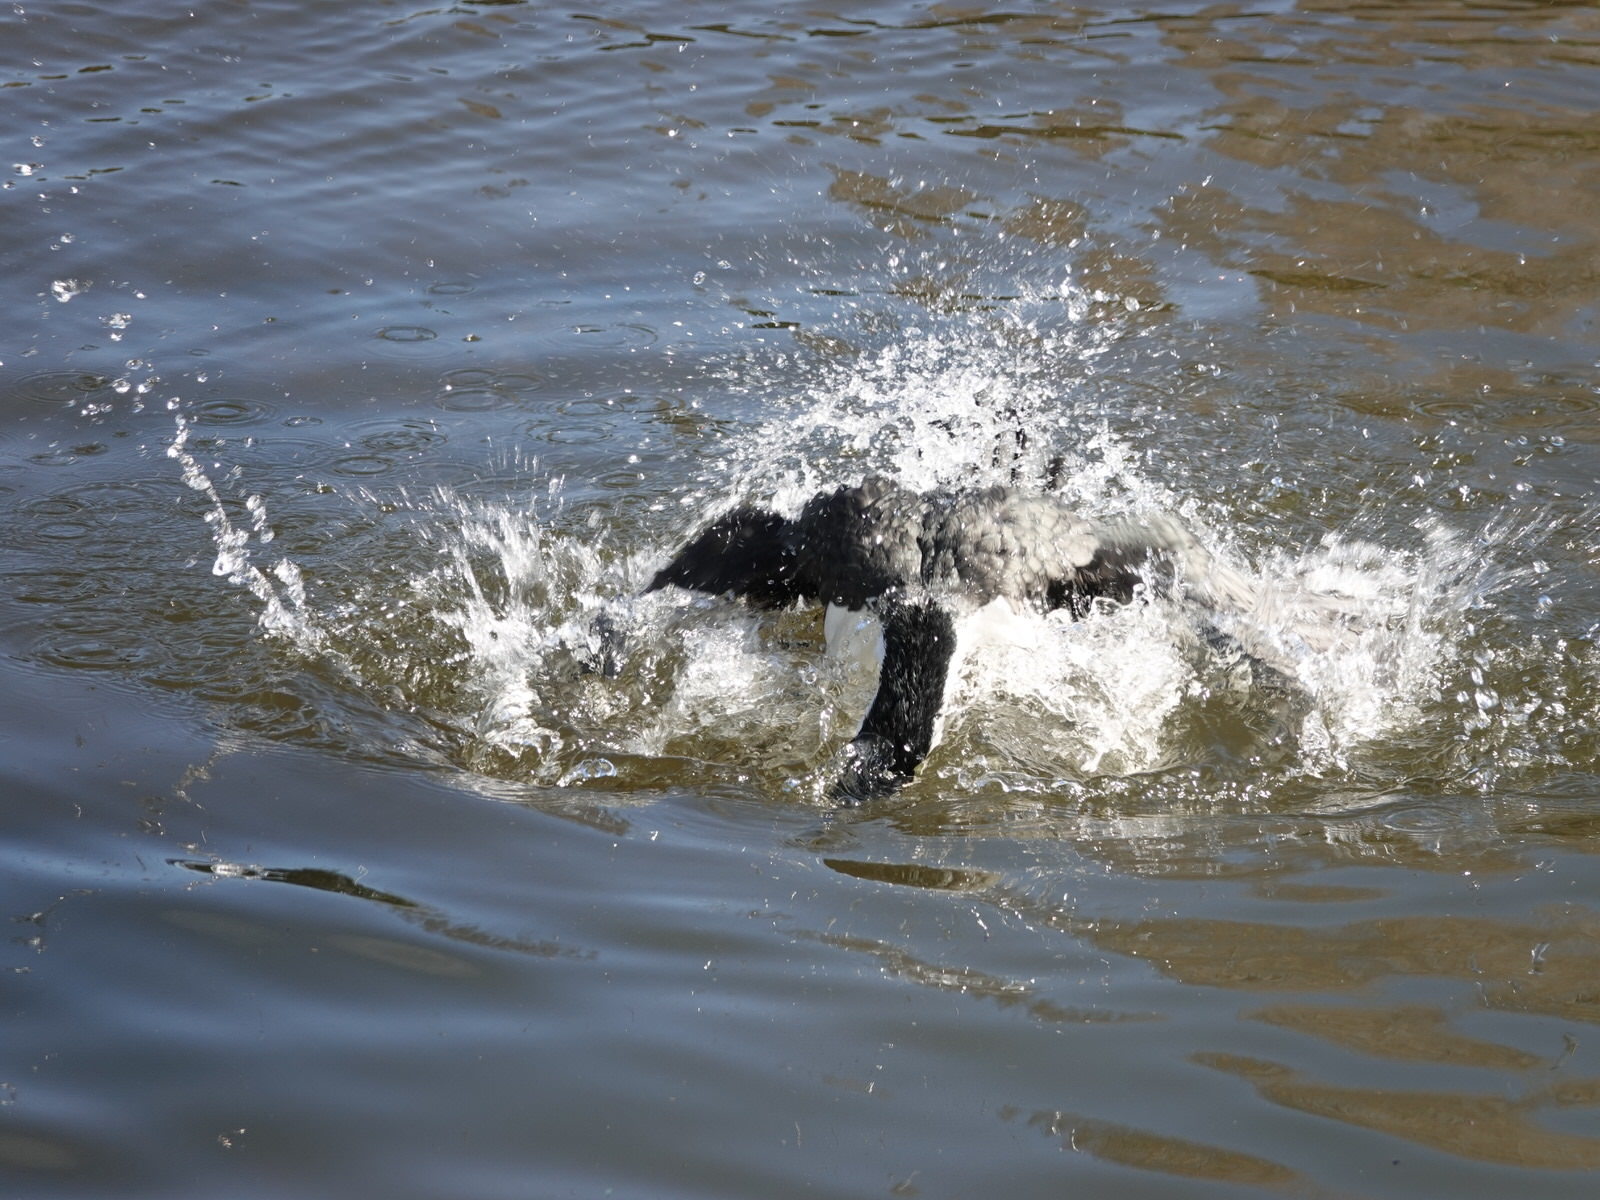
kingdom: Animalia
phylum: Chordata
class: Aves
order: Suliformes
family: Phalacrocoracidae
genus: Phalacrocorax
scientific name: Phalacrocorax varius
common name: Pied cormorant
